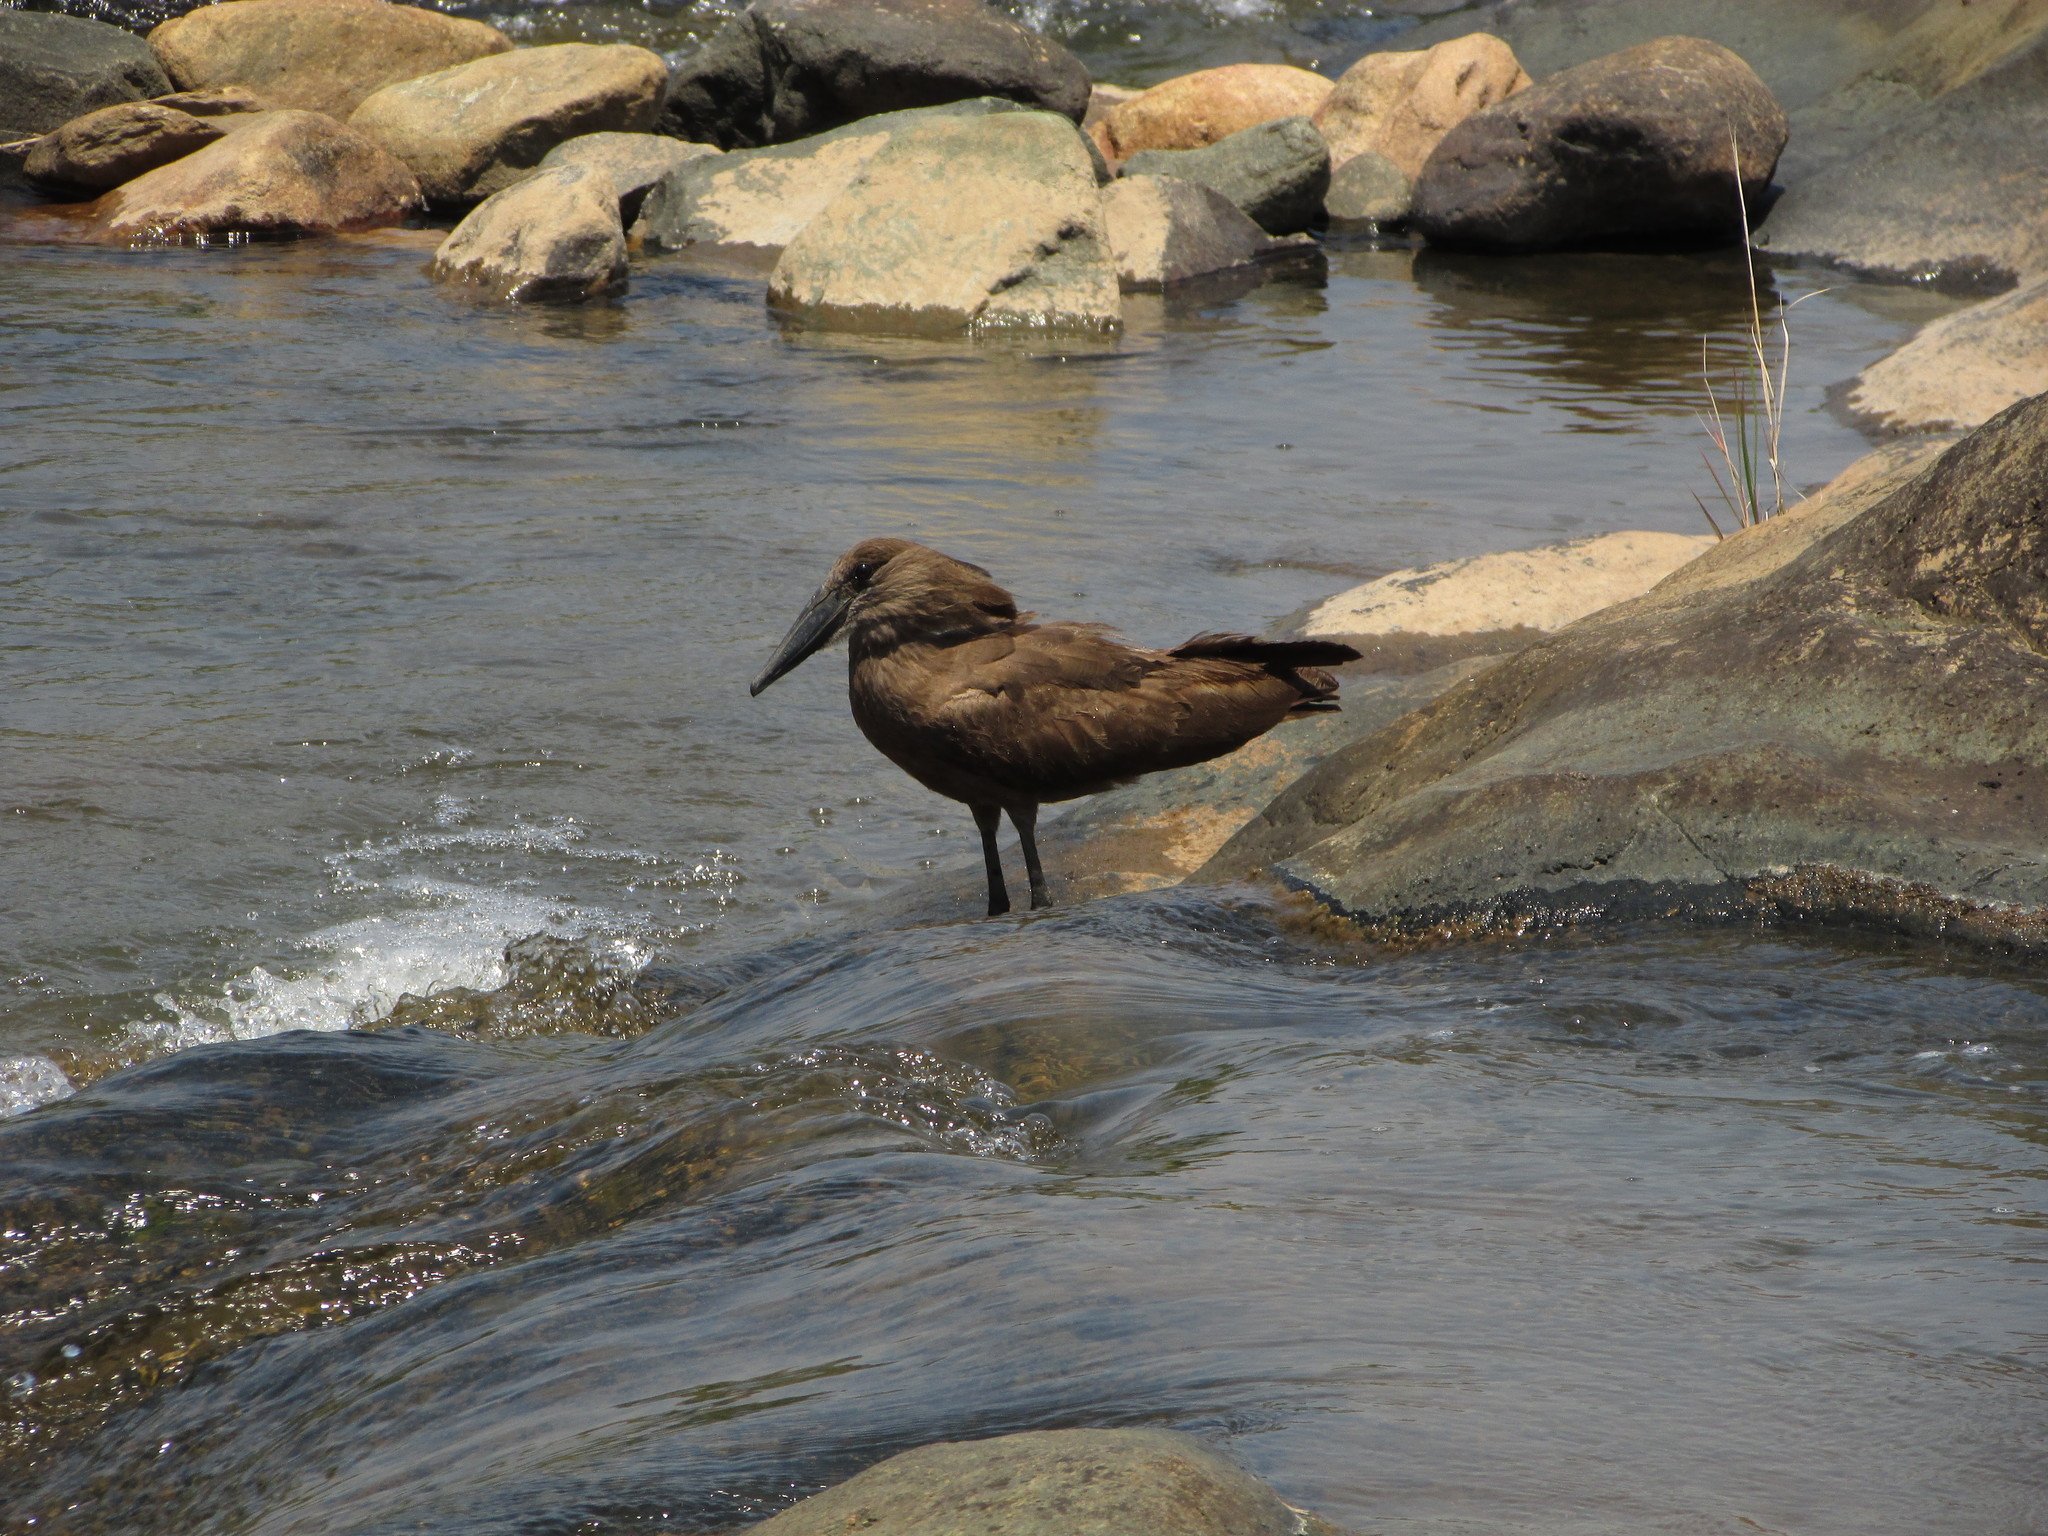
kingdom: Animalia
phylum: Chordata
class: Aves
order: Pelecaniformes
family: Scopidae
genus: Scopus
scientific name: Scopus umbretta
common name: Hamerkop
